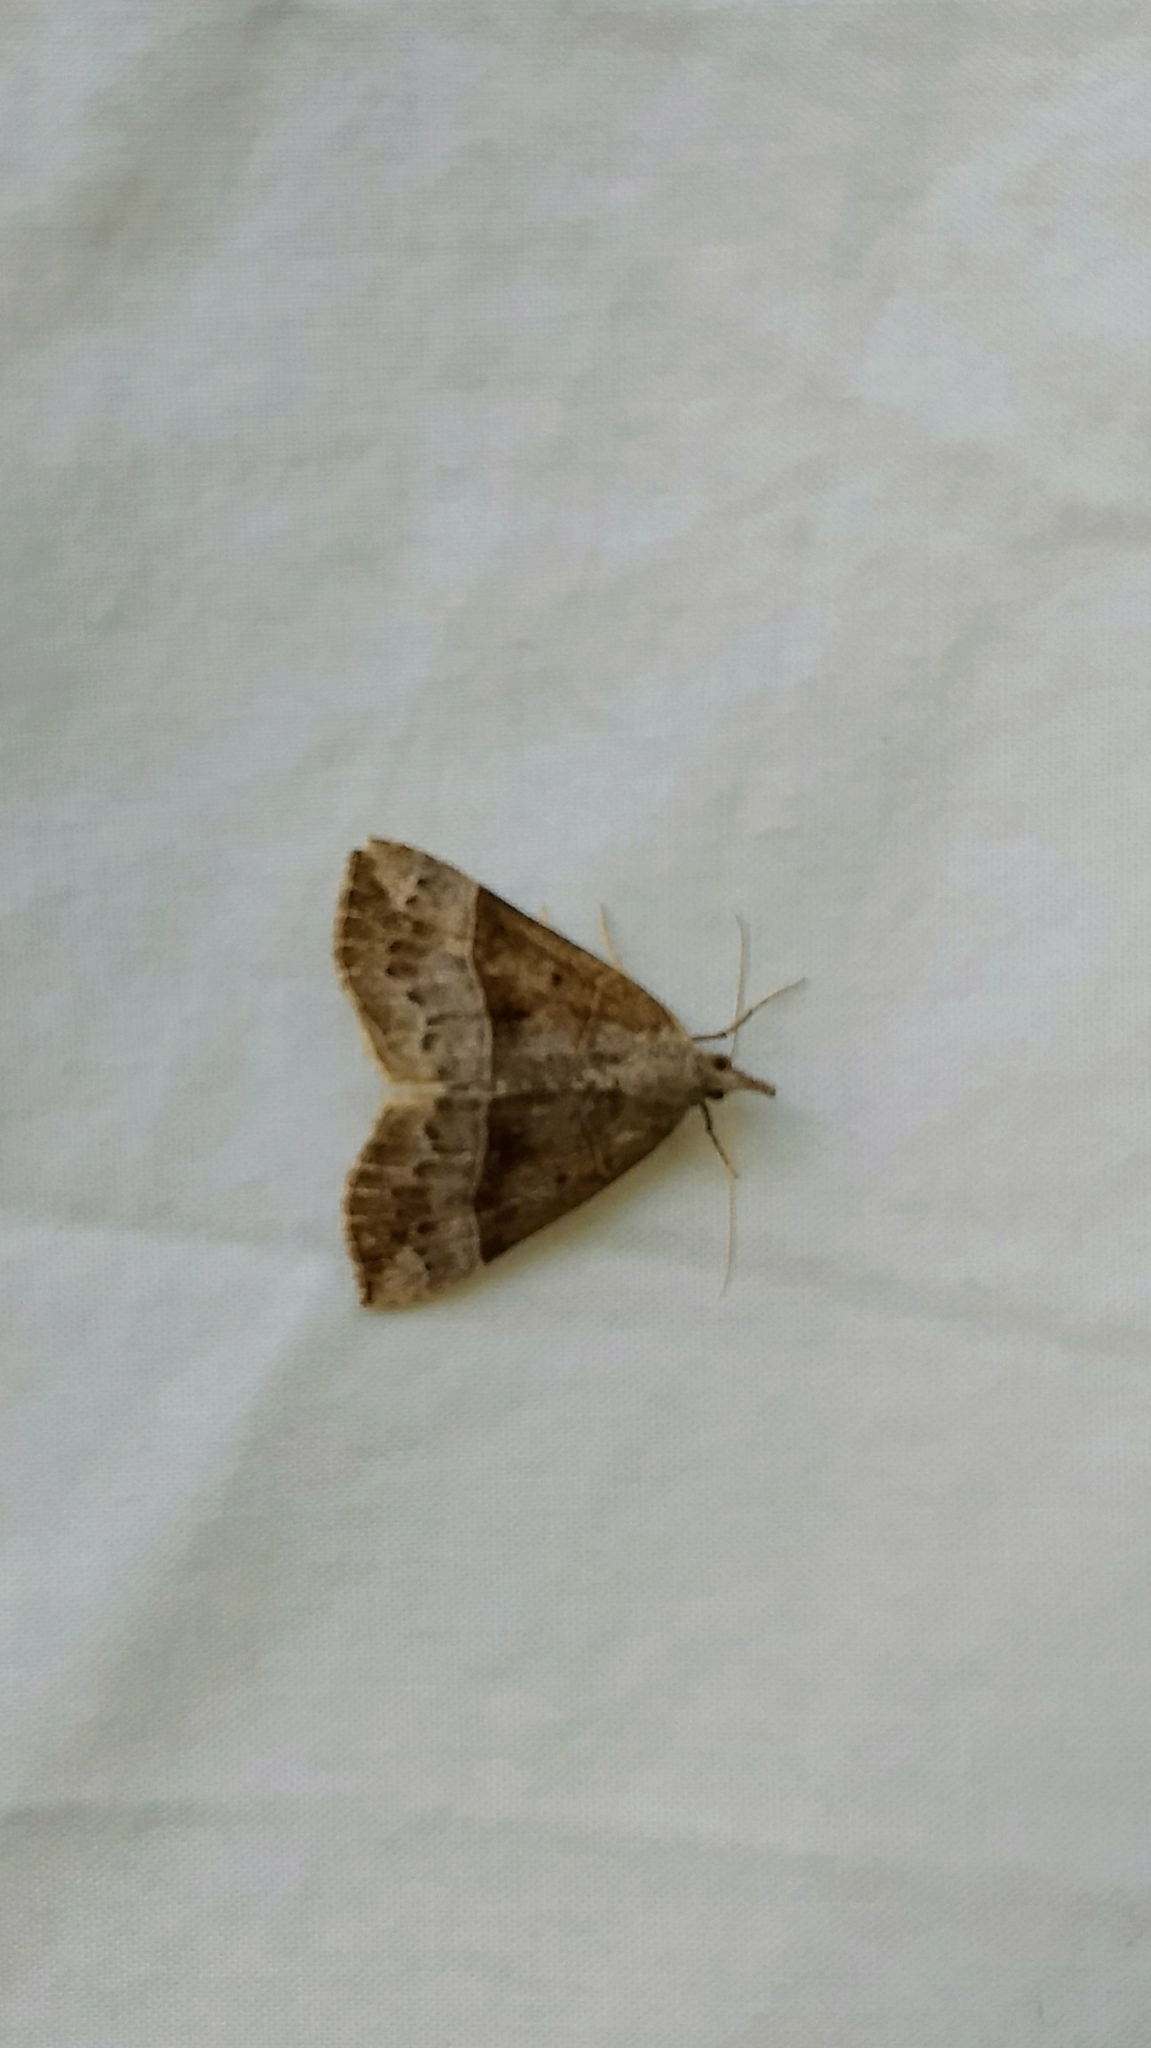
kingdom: Animalia
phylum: Arthropoda
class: Insecta
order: Lepidoptera
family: Erebidae
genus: Hypena
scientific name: Hypena deceptalis
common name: Deceptive snout
